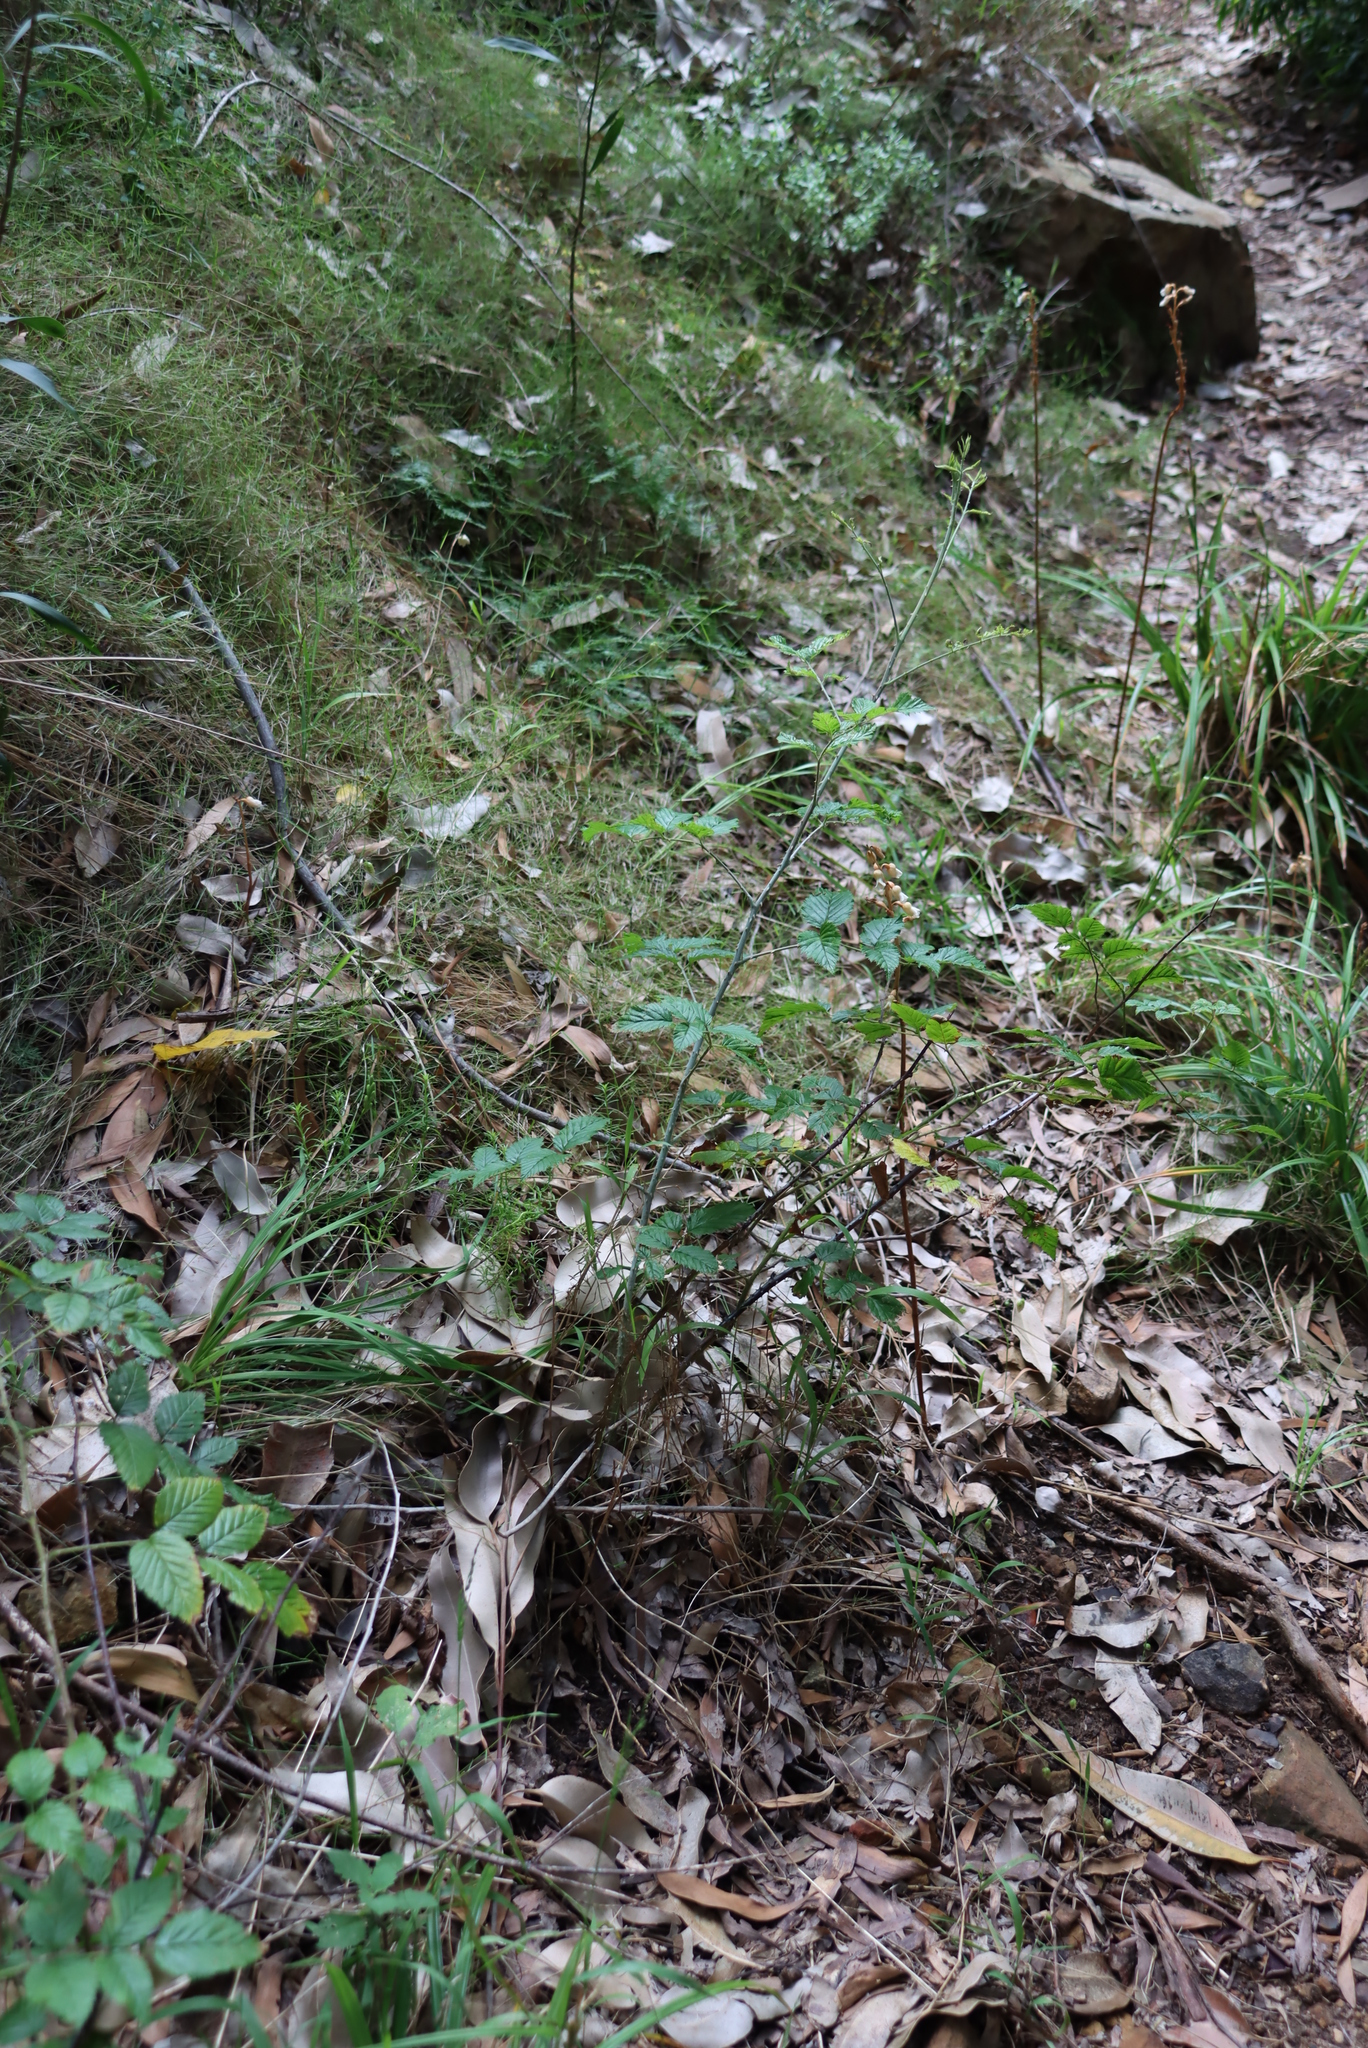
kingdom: Plantae
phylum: Tracheophyta
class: Magnoliopsida
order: Rosales
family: Rosaceae
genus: Rubus
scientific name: Rubus pinnatus
